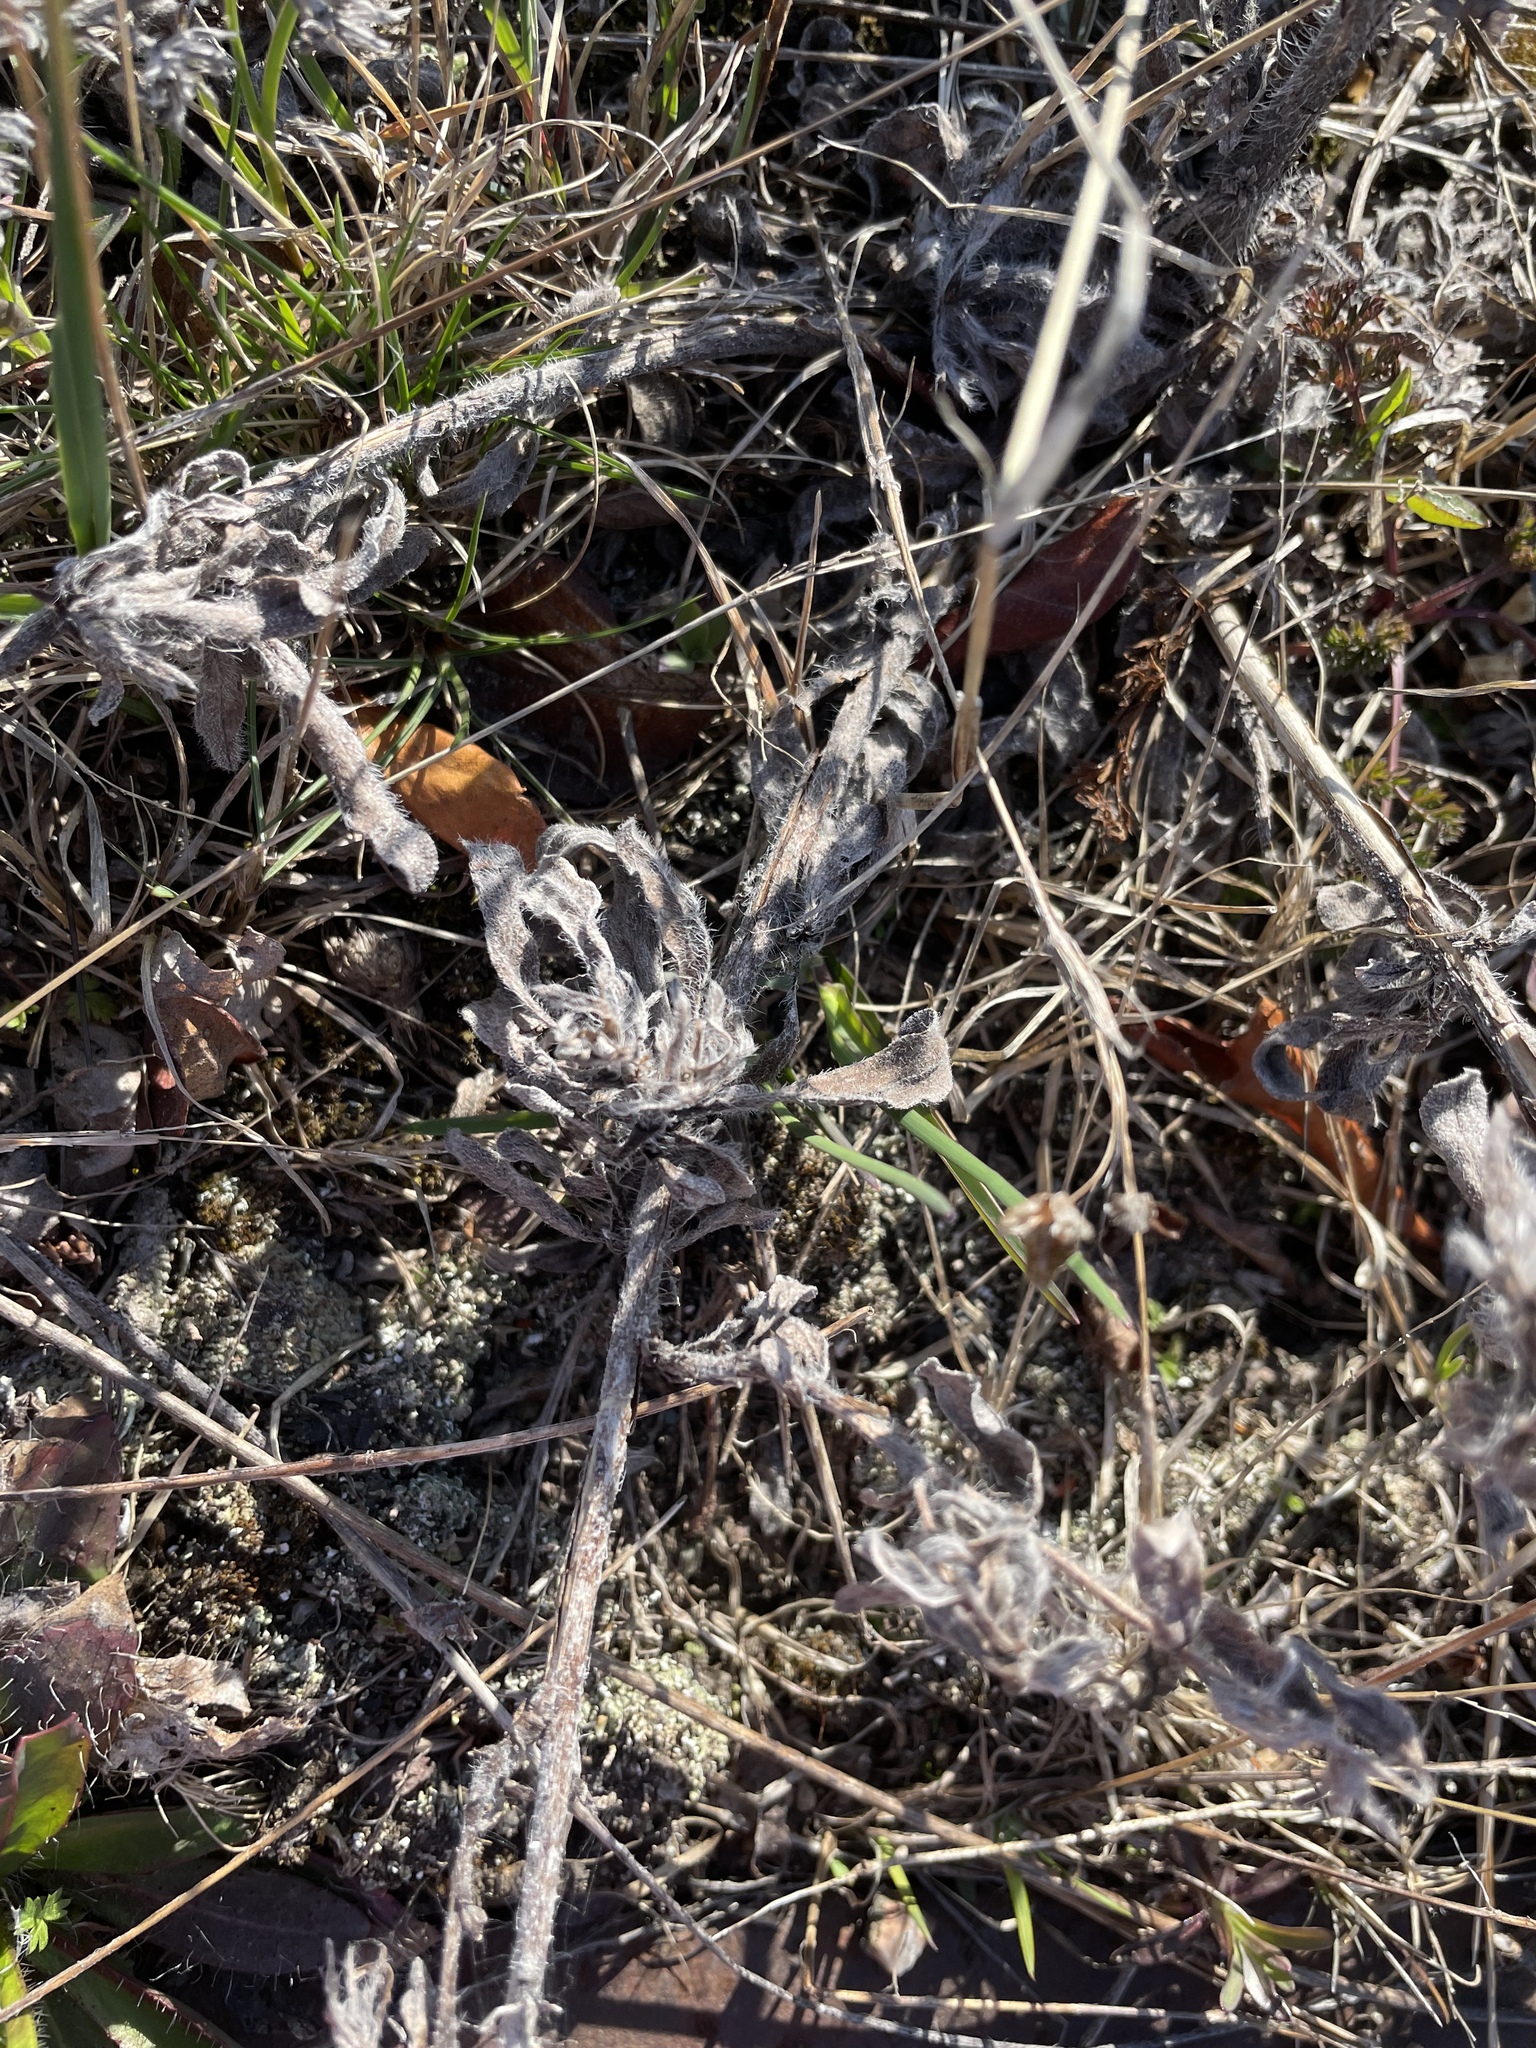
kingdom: Plantae
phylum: Tracheophyta
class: Magnoliopsida
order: Boraginales
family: Boraginaceae
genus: Echium
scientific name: Echium vulgare
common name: Common viper's bugloss
